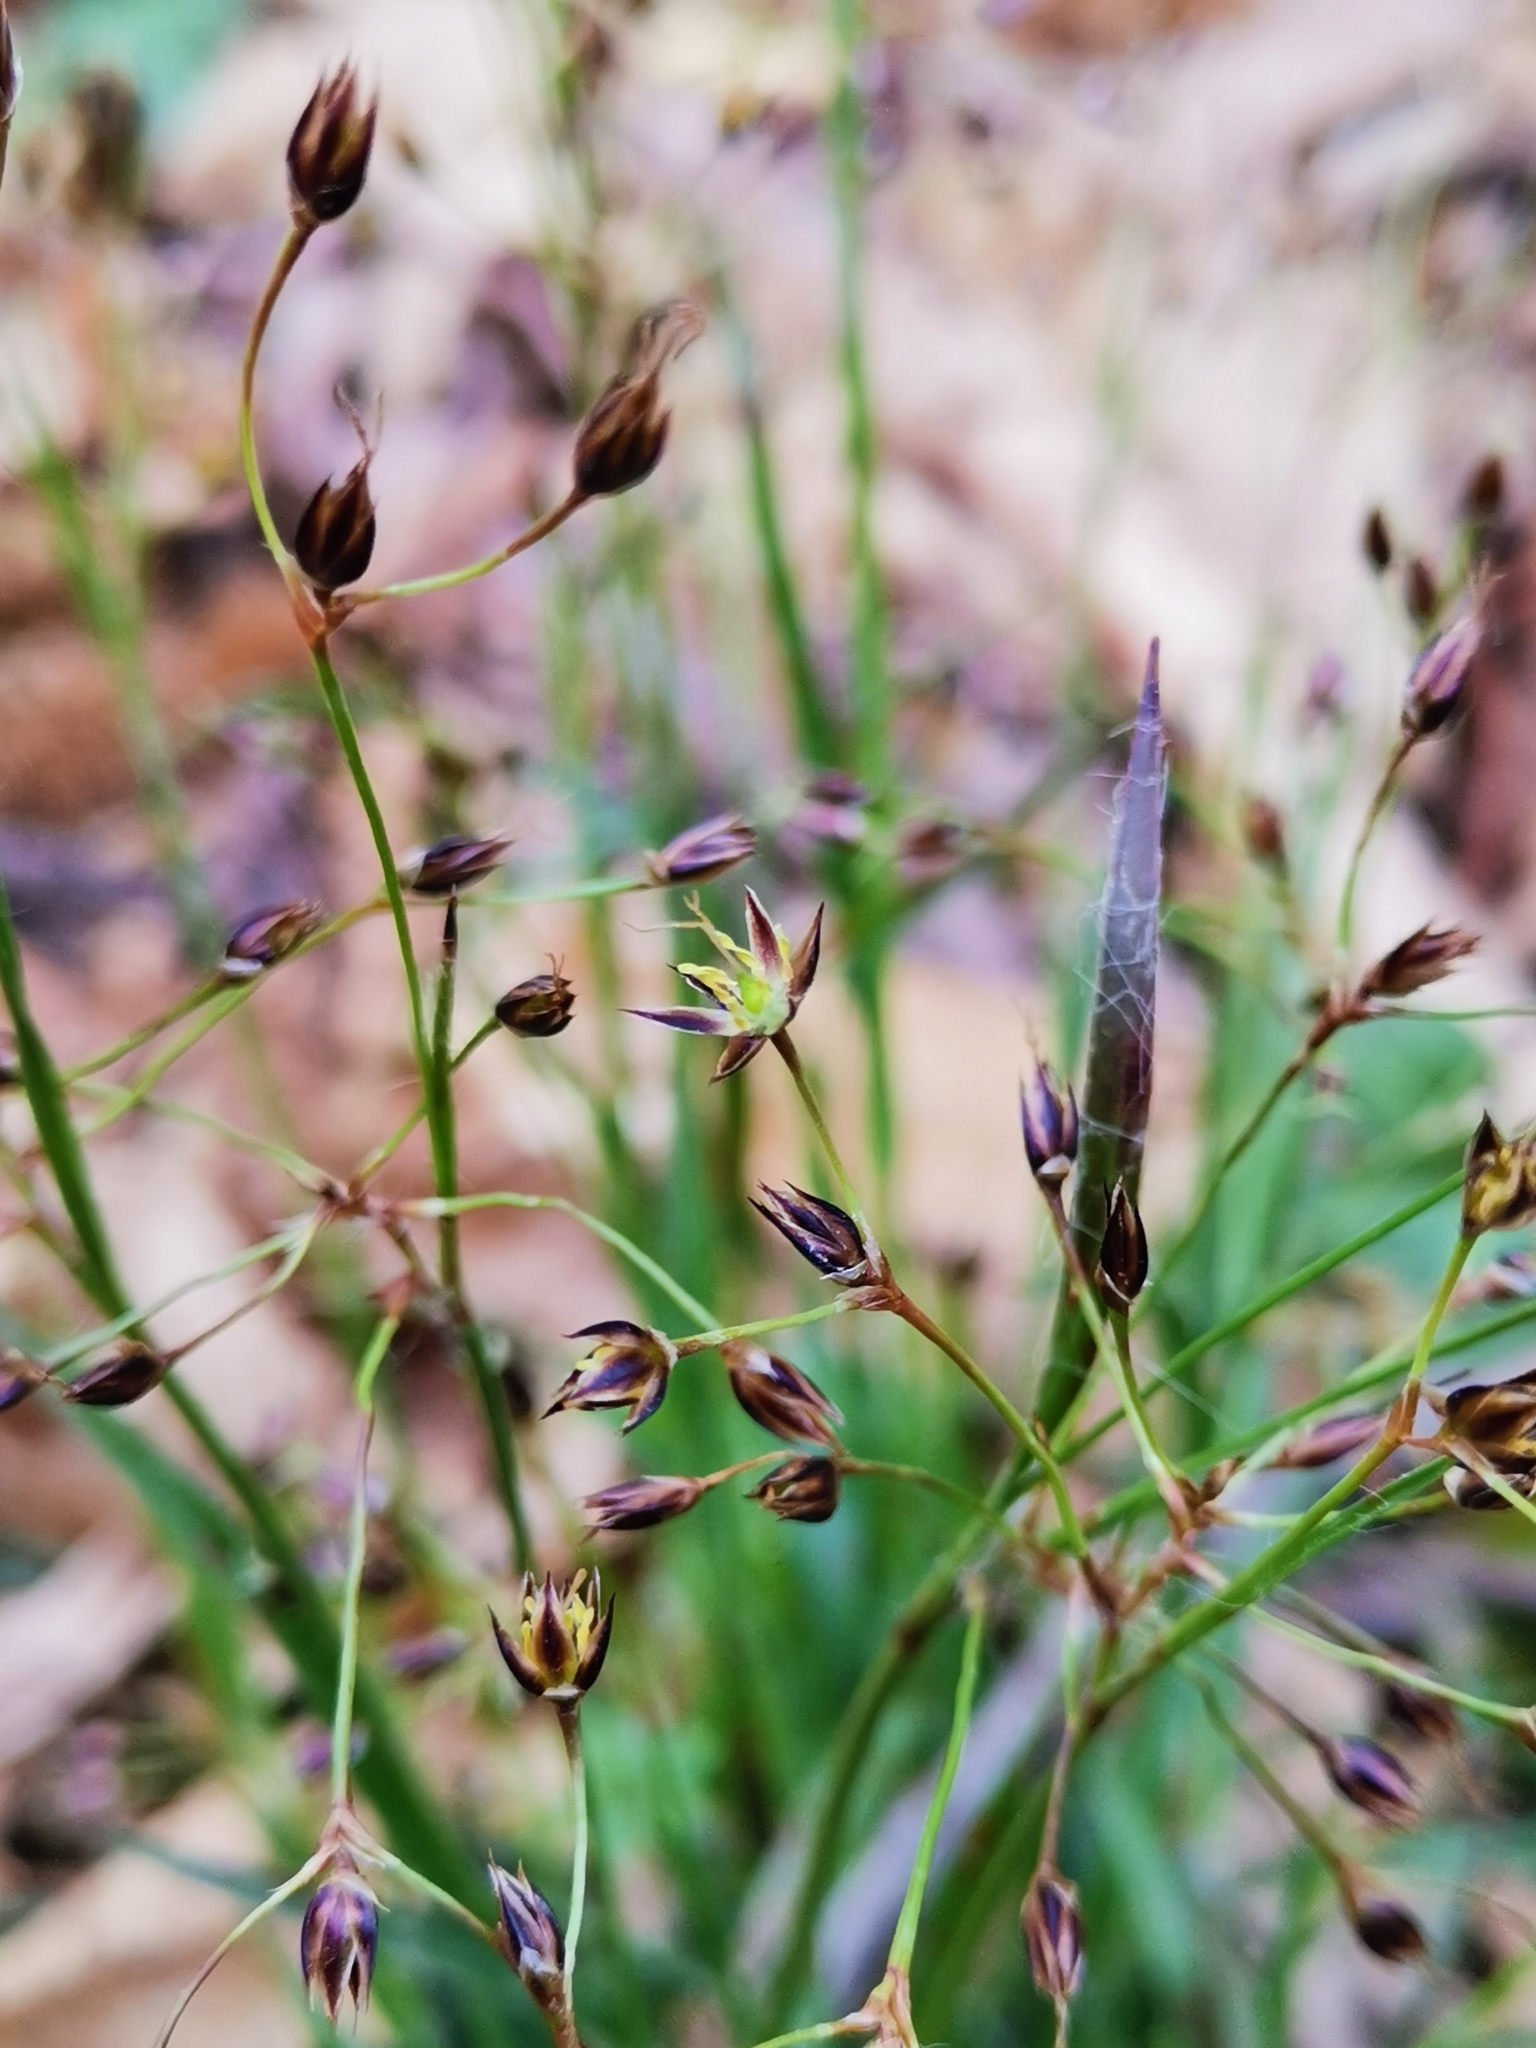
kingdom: Plantae
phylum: Tracheophyta
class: Liliopsida
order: Poales
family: Juncaceae
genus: Luzula
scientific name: Luzula pilosa
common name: Hairy wood-rush
